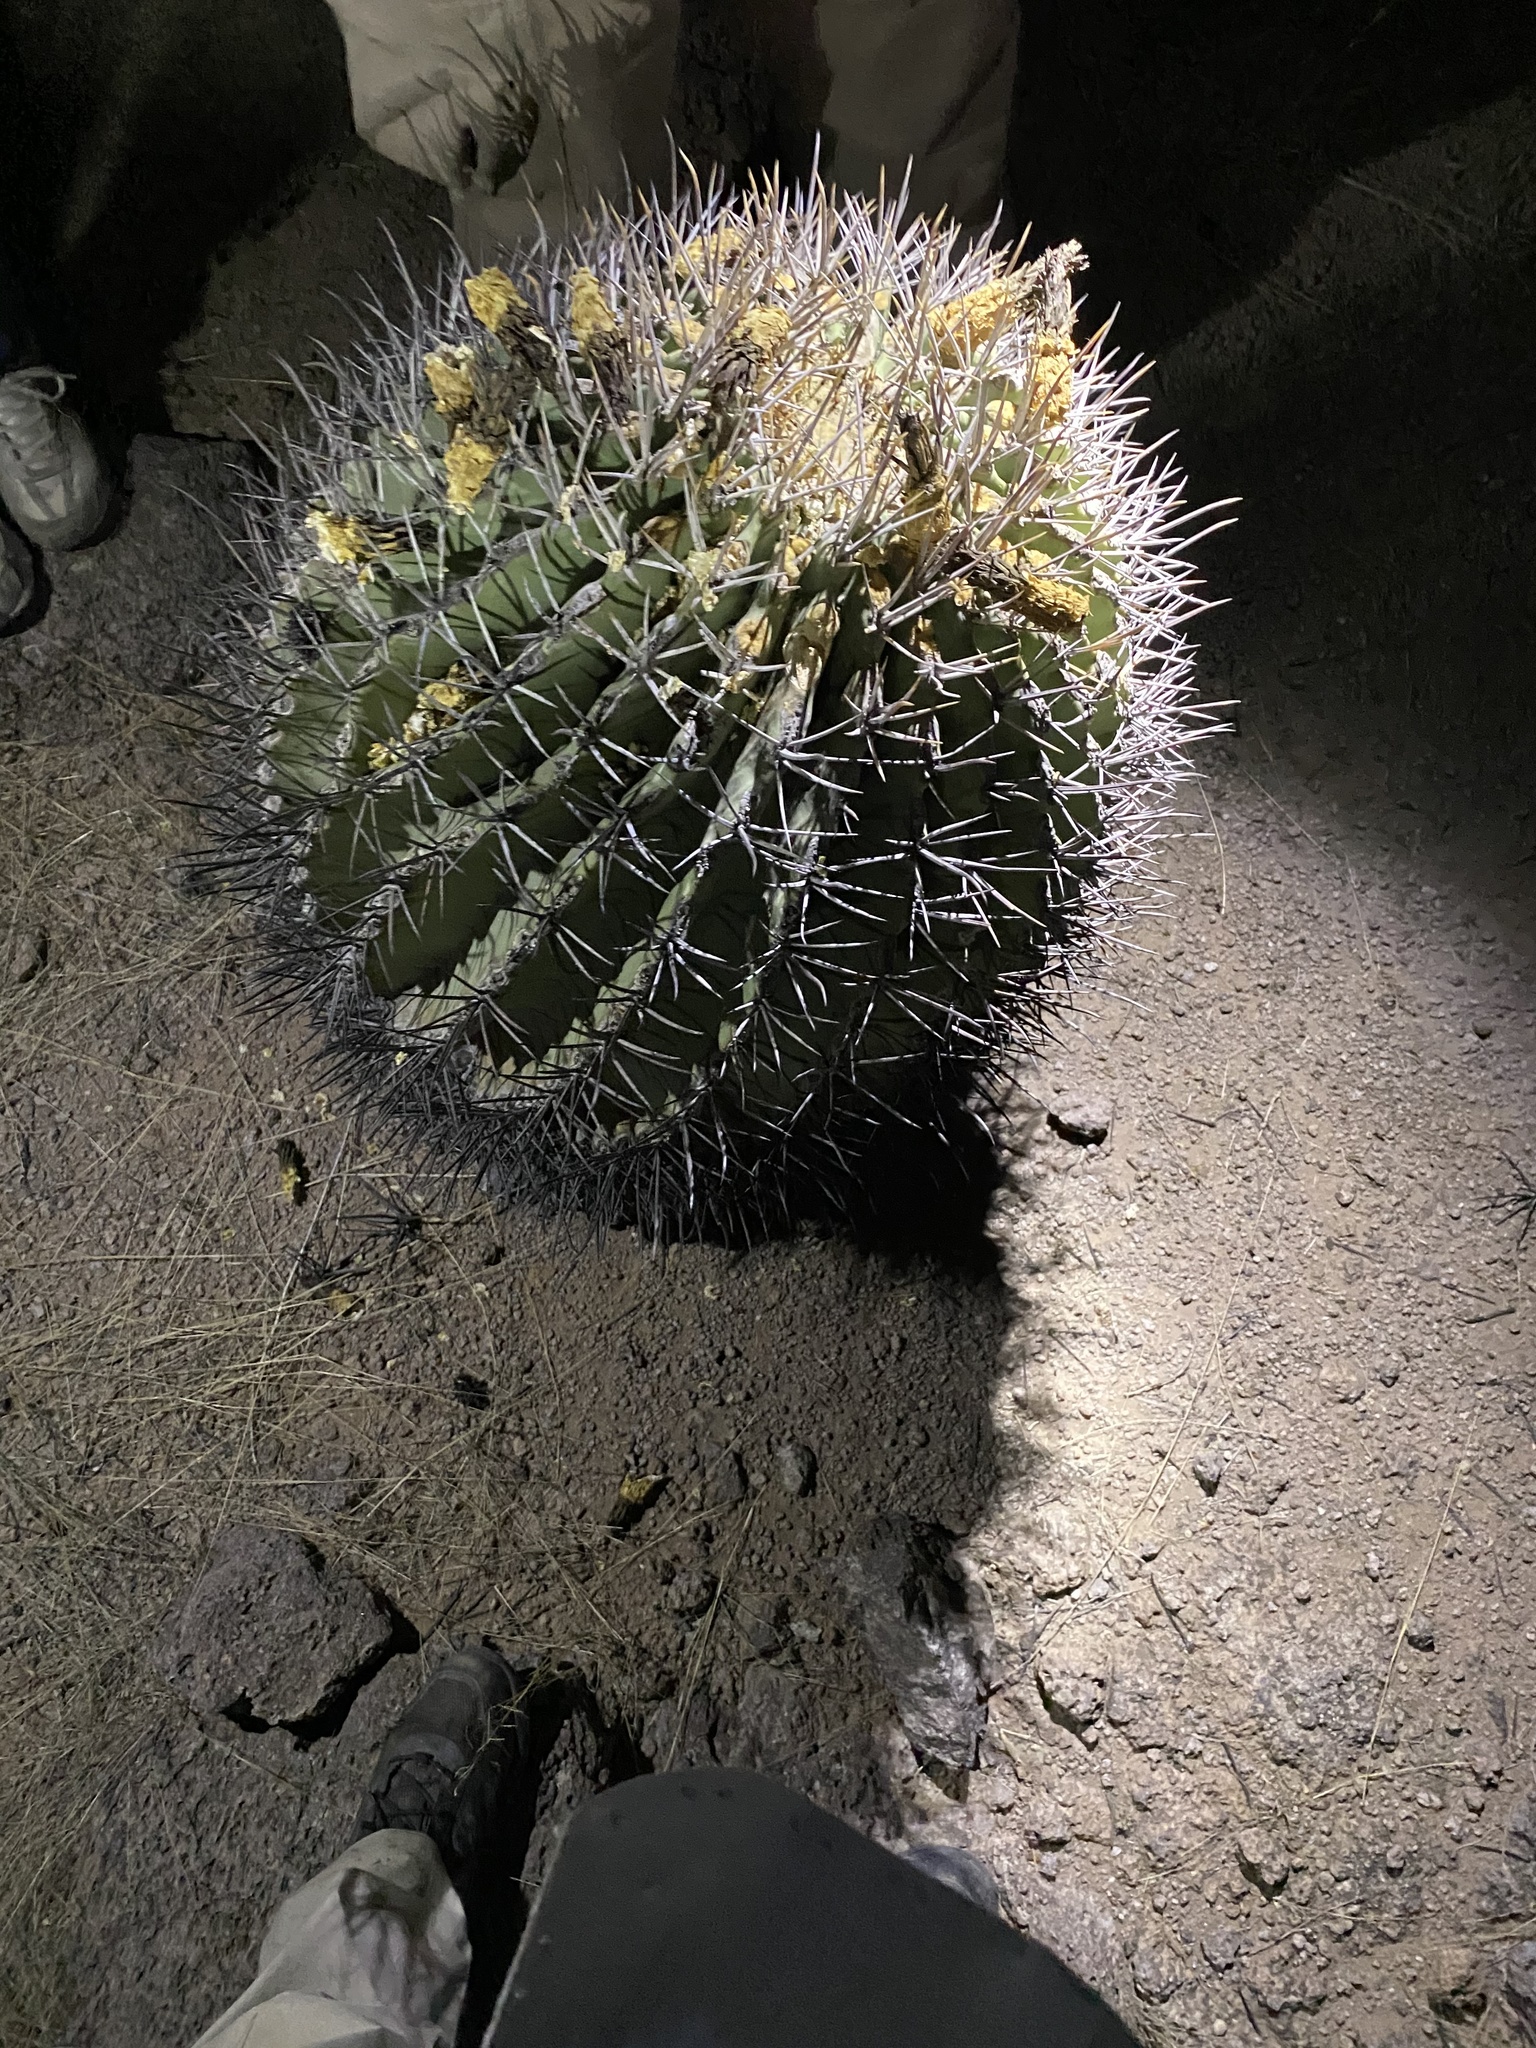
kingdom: Plantae
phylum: Tracheophyta
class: Magnoliopsida
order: Caryophyllales
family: Cactaceae
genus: Ferocactus
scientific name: Ferocactus emoryi
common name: Emory's barrel cactus
